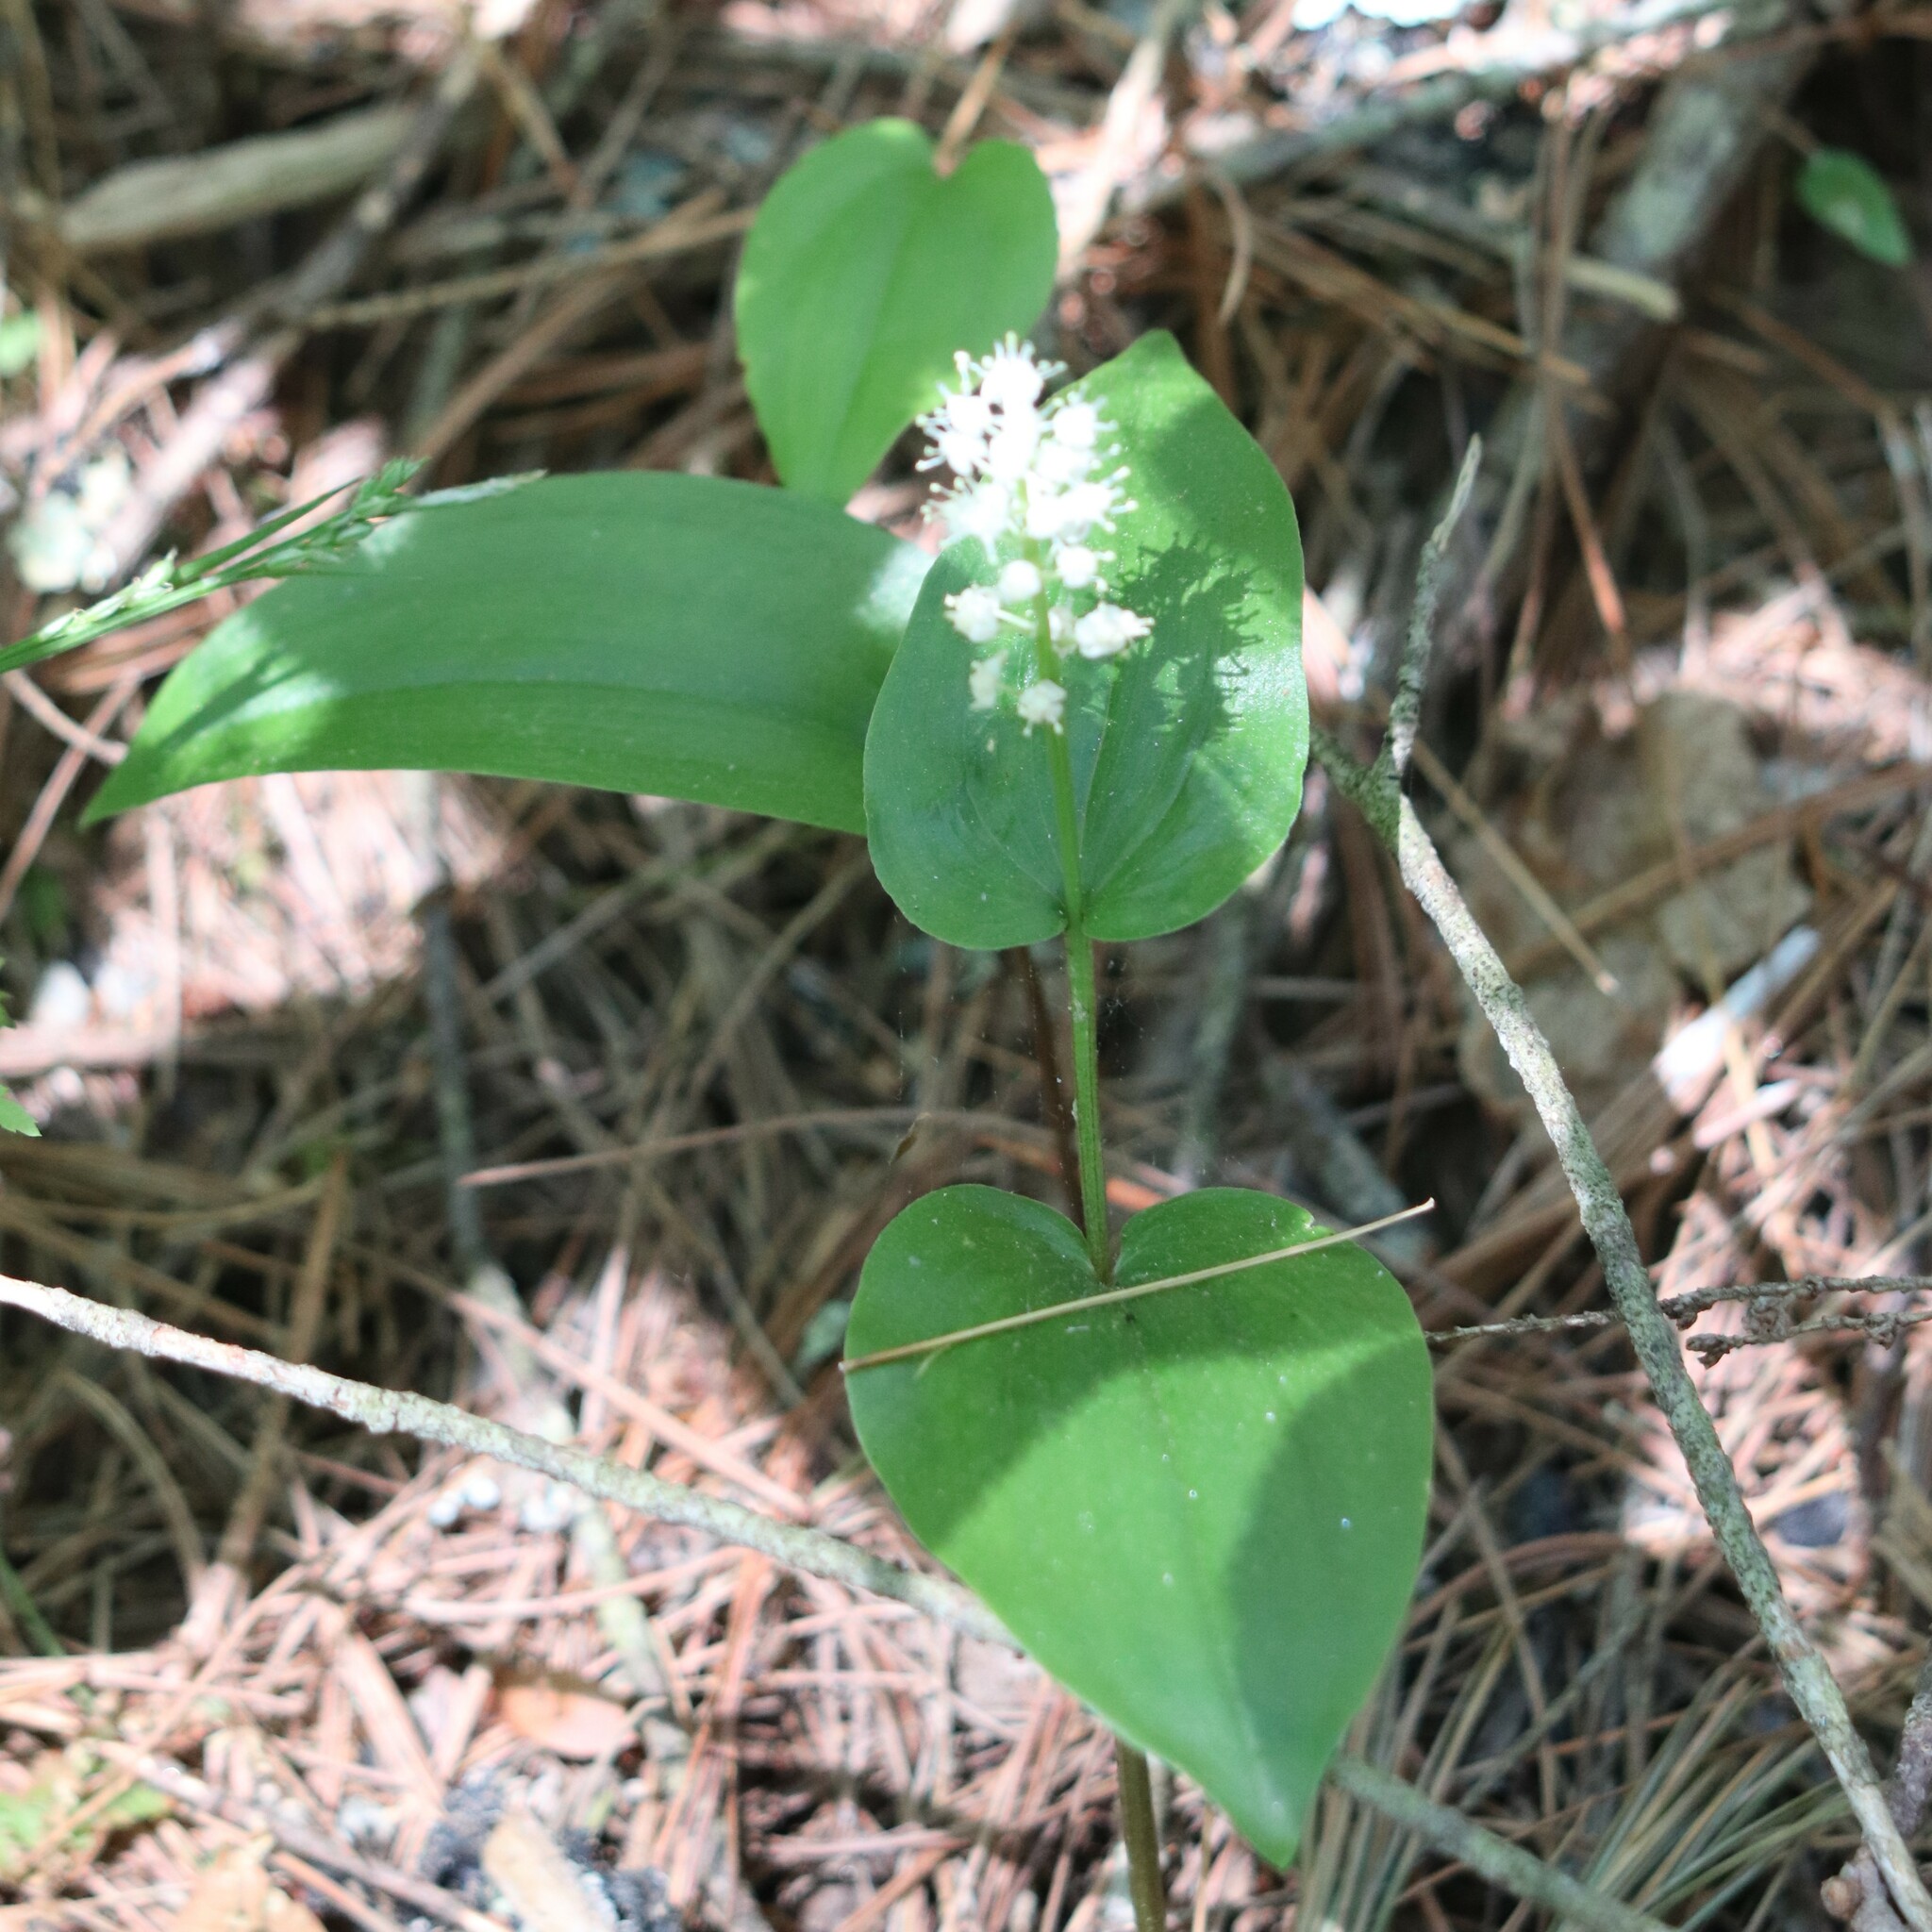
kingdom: Plantae
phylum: Tracheophyta
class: Liliopsida
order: Asparagales
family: Asparagaceae
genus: Maianthemum
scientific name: Maianthemum canadense
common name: False lily-of-the-valley
